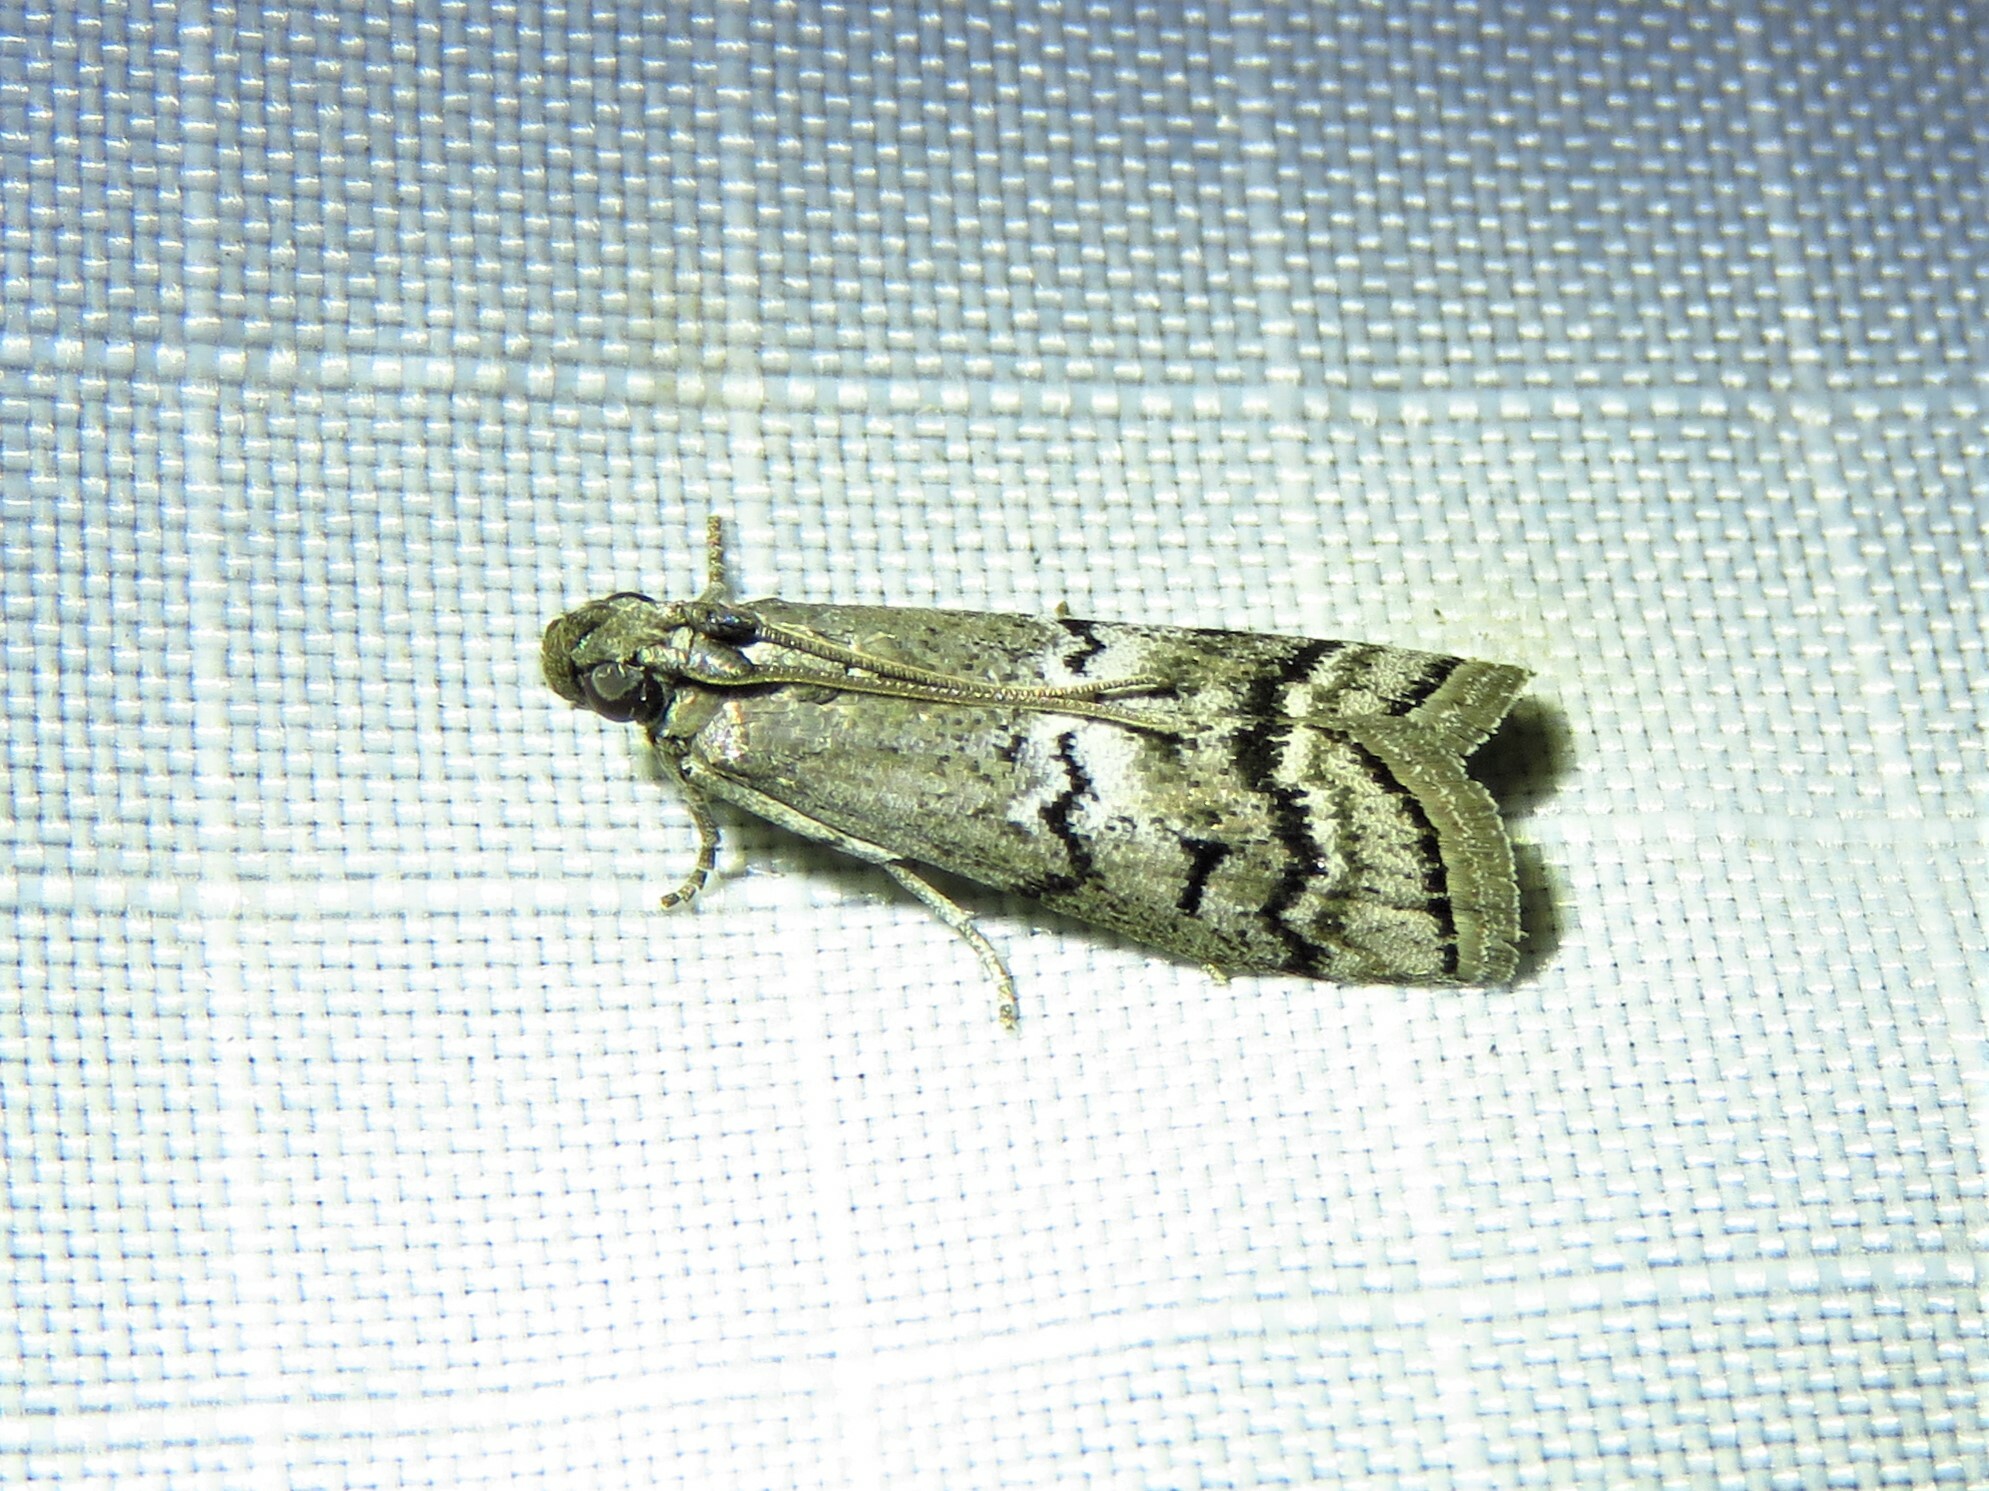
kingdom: Animalia
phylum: Arthropoda
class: Insecta
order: Lepidoptera
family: Pyralidae
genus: Ancylosis
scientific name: Ancylosis Canarsia ulmiarrosorella
